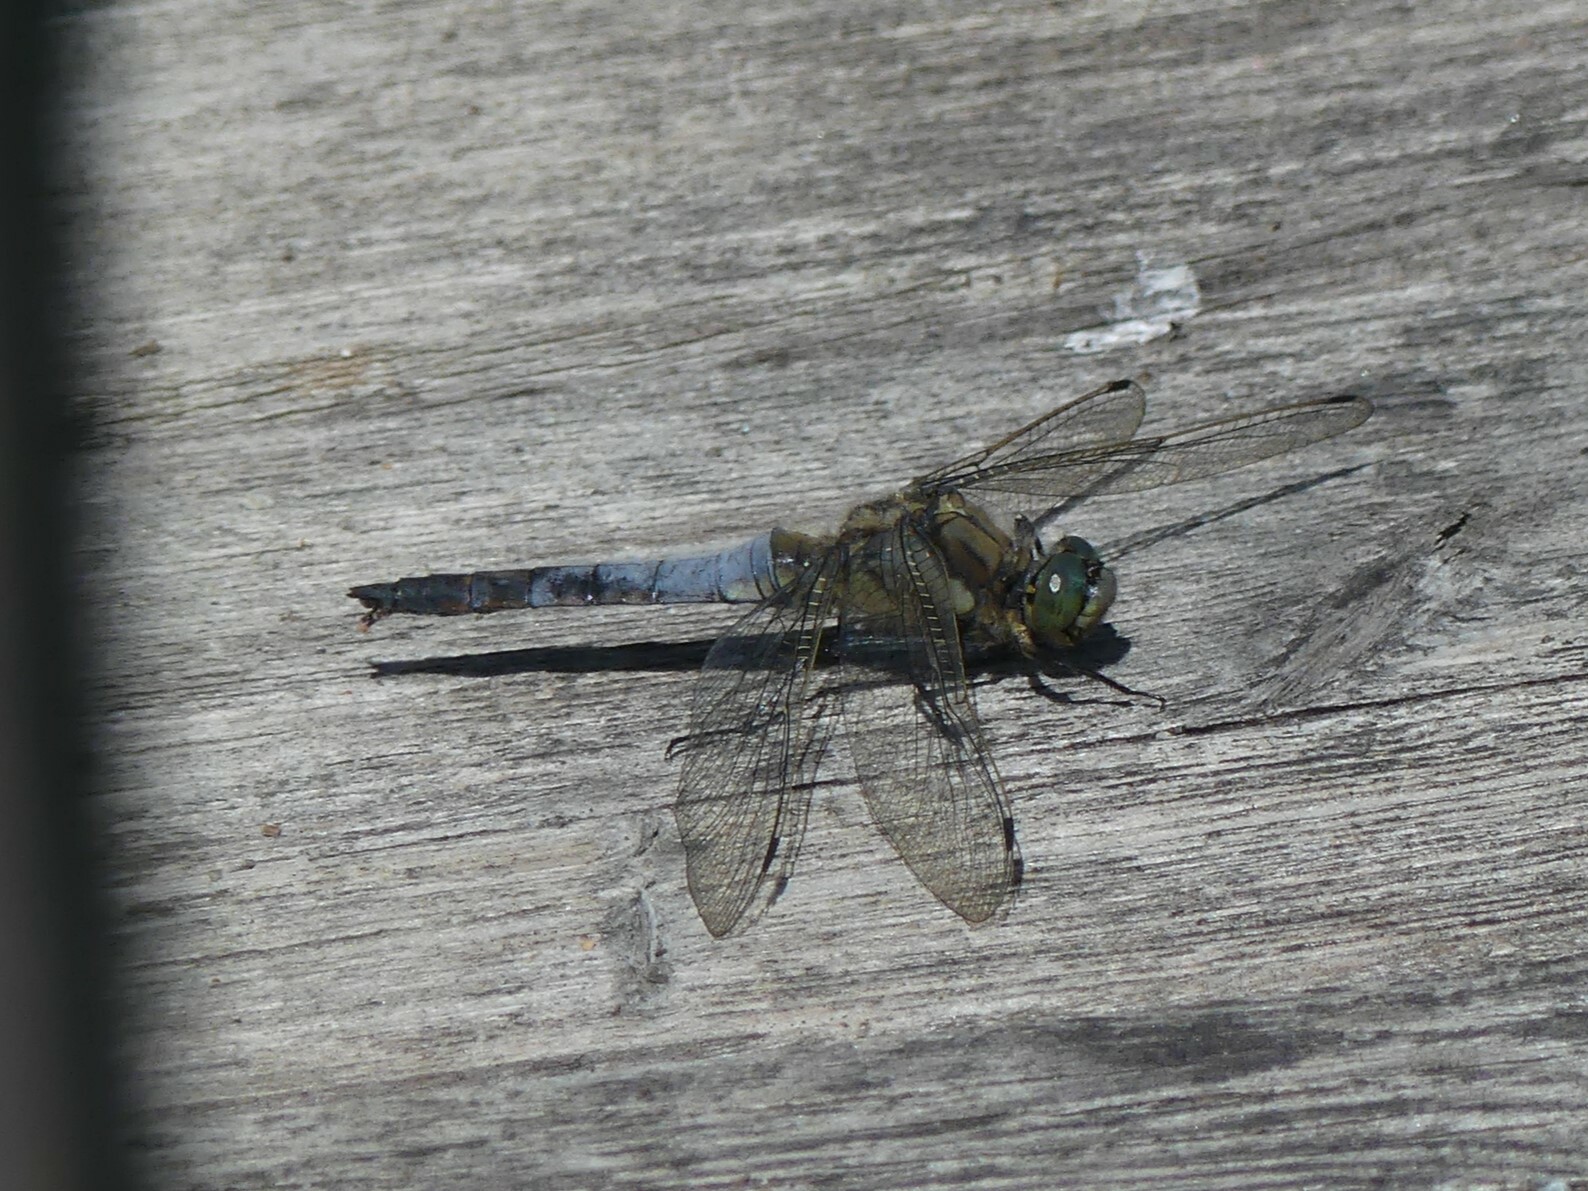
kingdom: Animalia
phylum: Arthropoda
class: Insecta
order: Odonata
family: Libellulidae
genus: Orthetrum
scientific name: Orthetrum cancellatum
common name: Black-tailed skimmer
